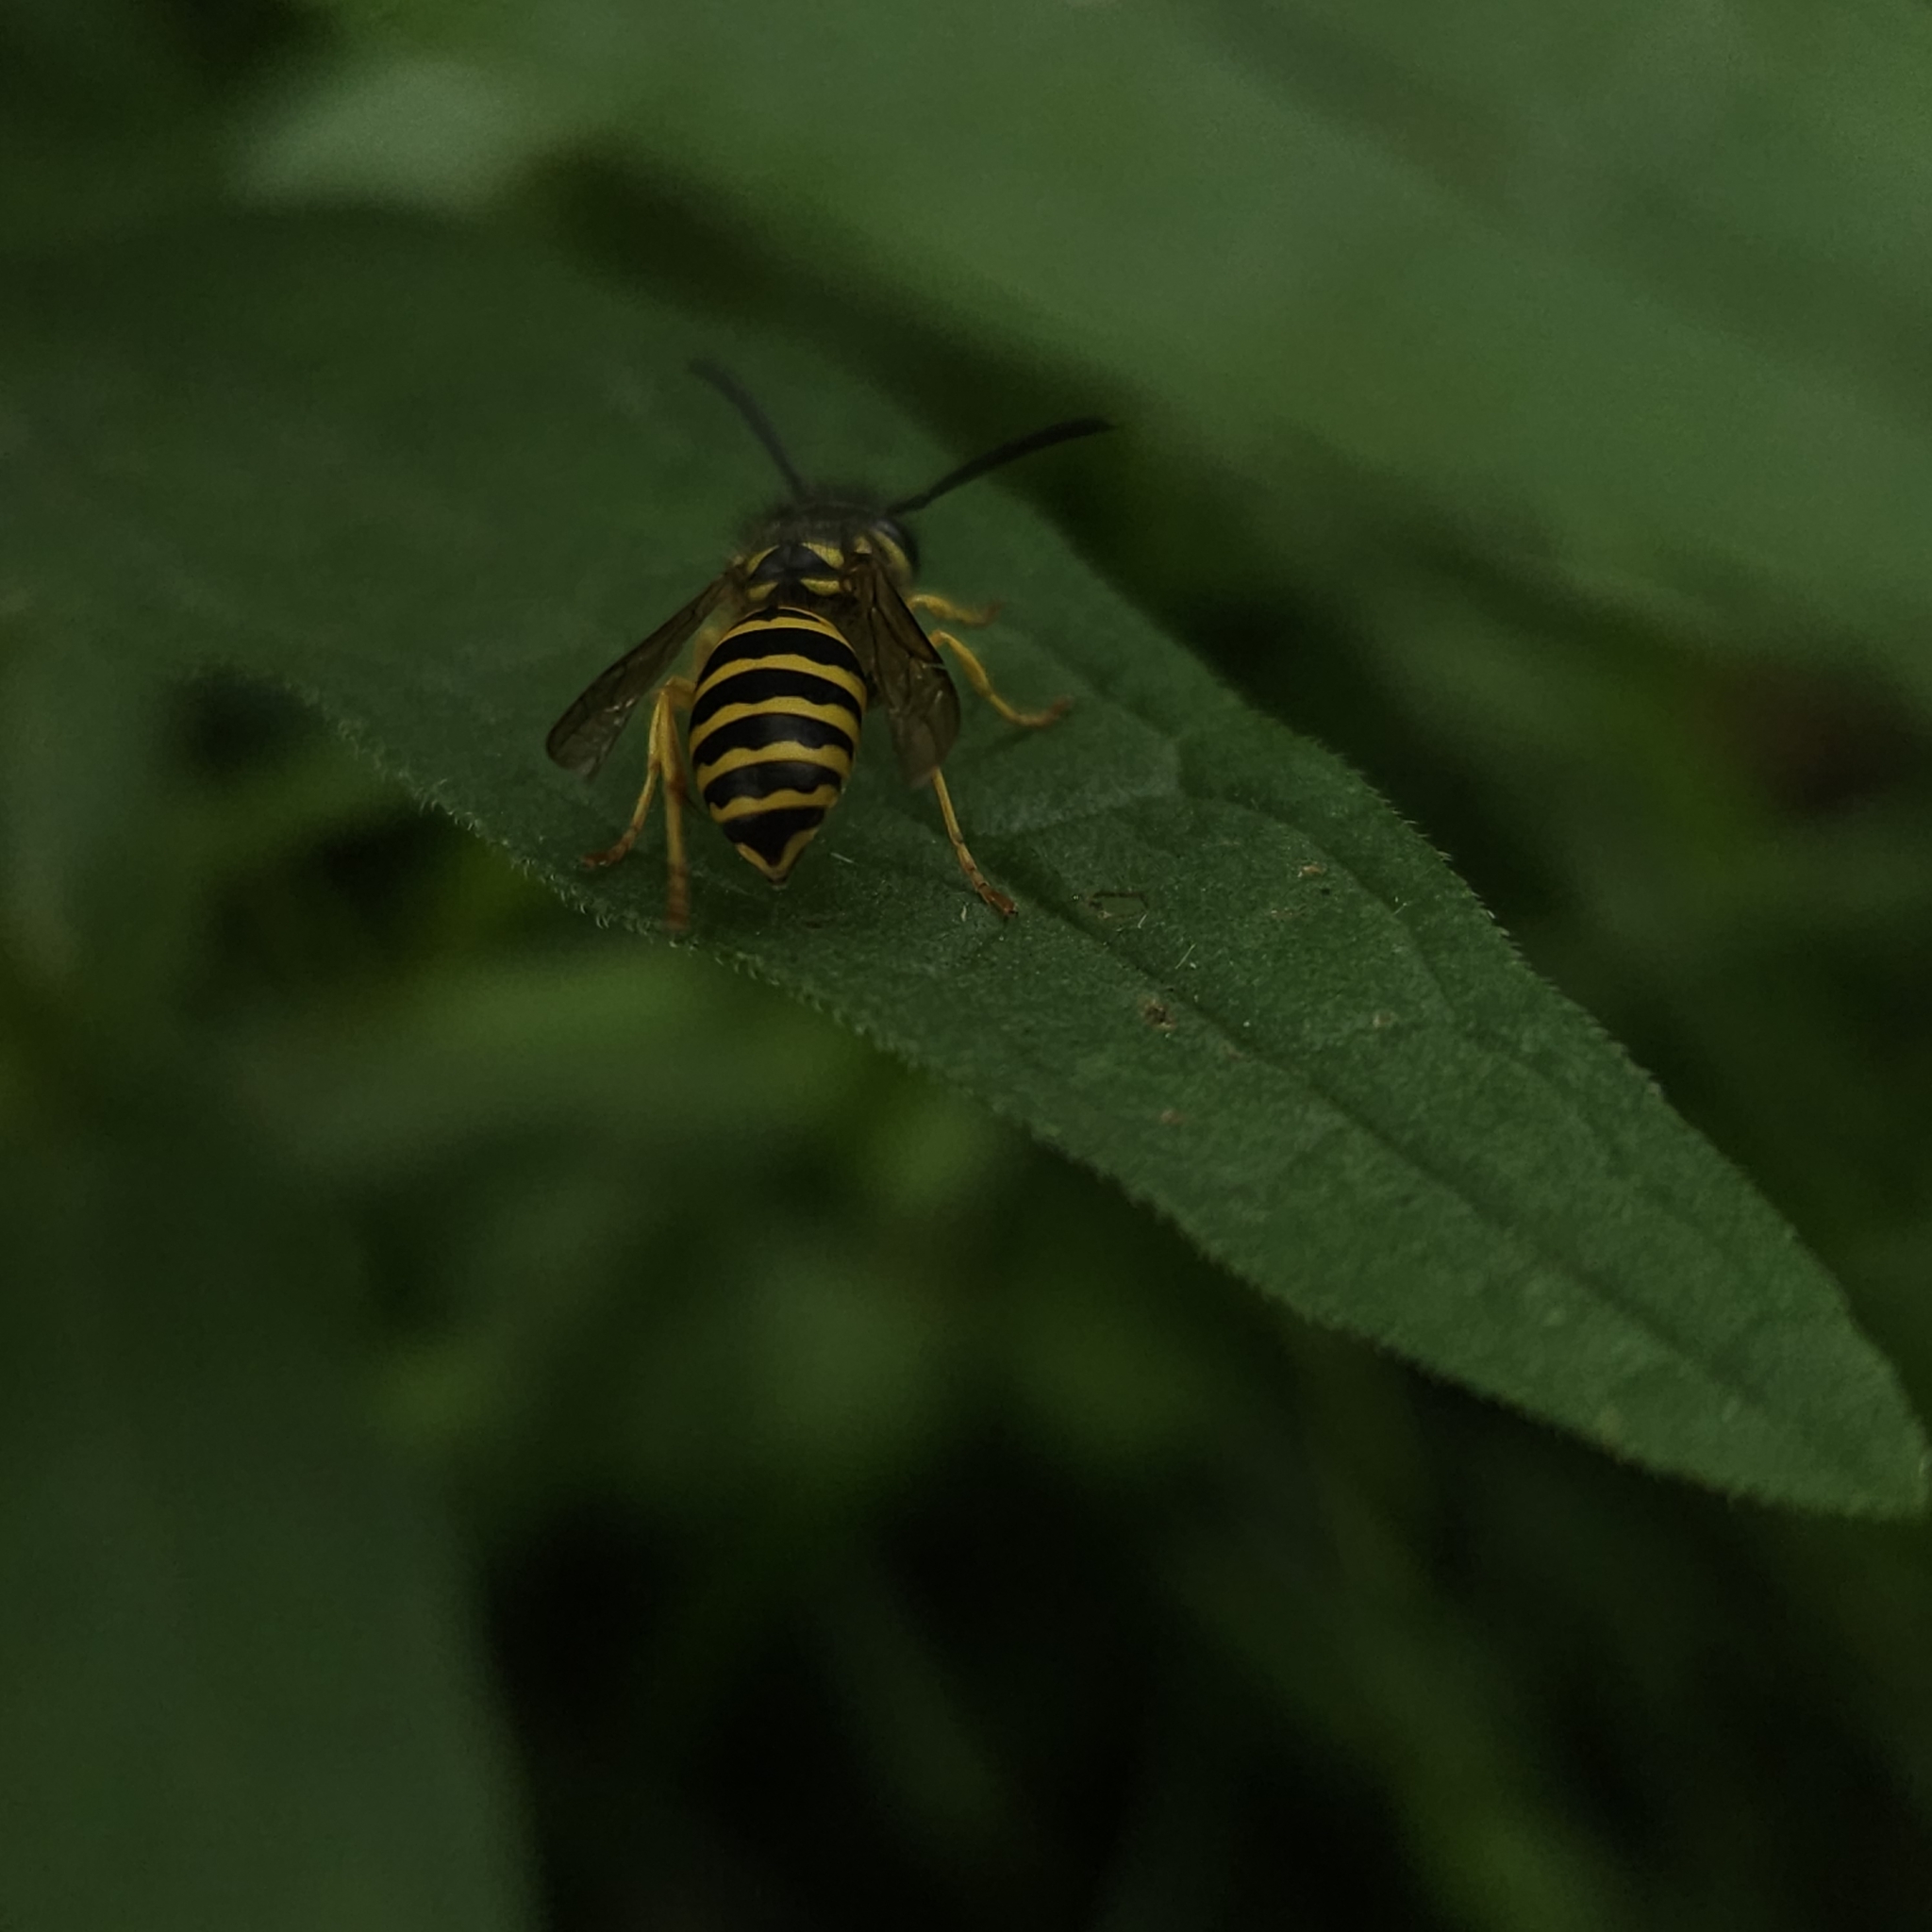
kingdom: Animalia
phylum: Arthropoda
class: Insecta
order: Hymenoptera
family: Vespidae
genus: Vespula
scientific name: Vespula maculifrons
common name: Eastern yellowjacket
